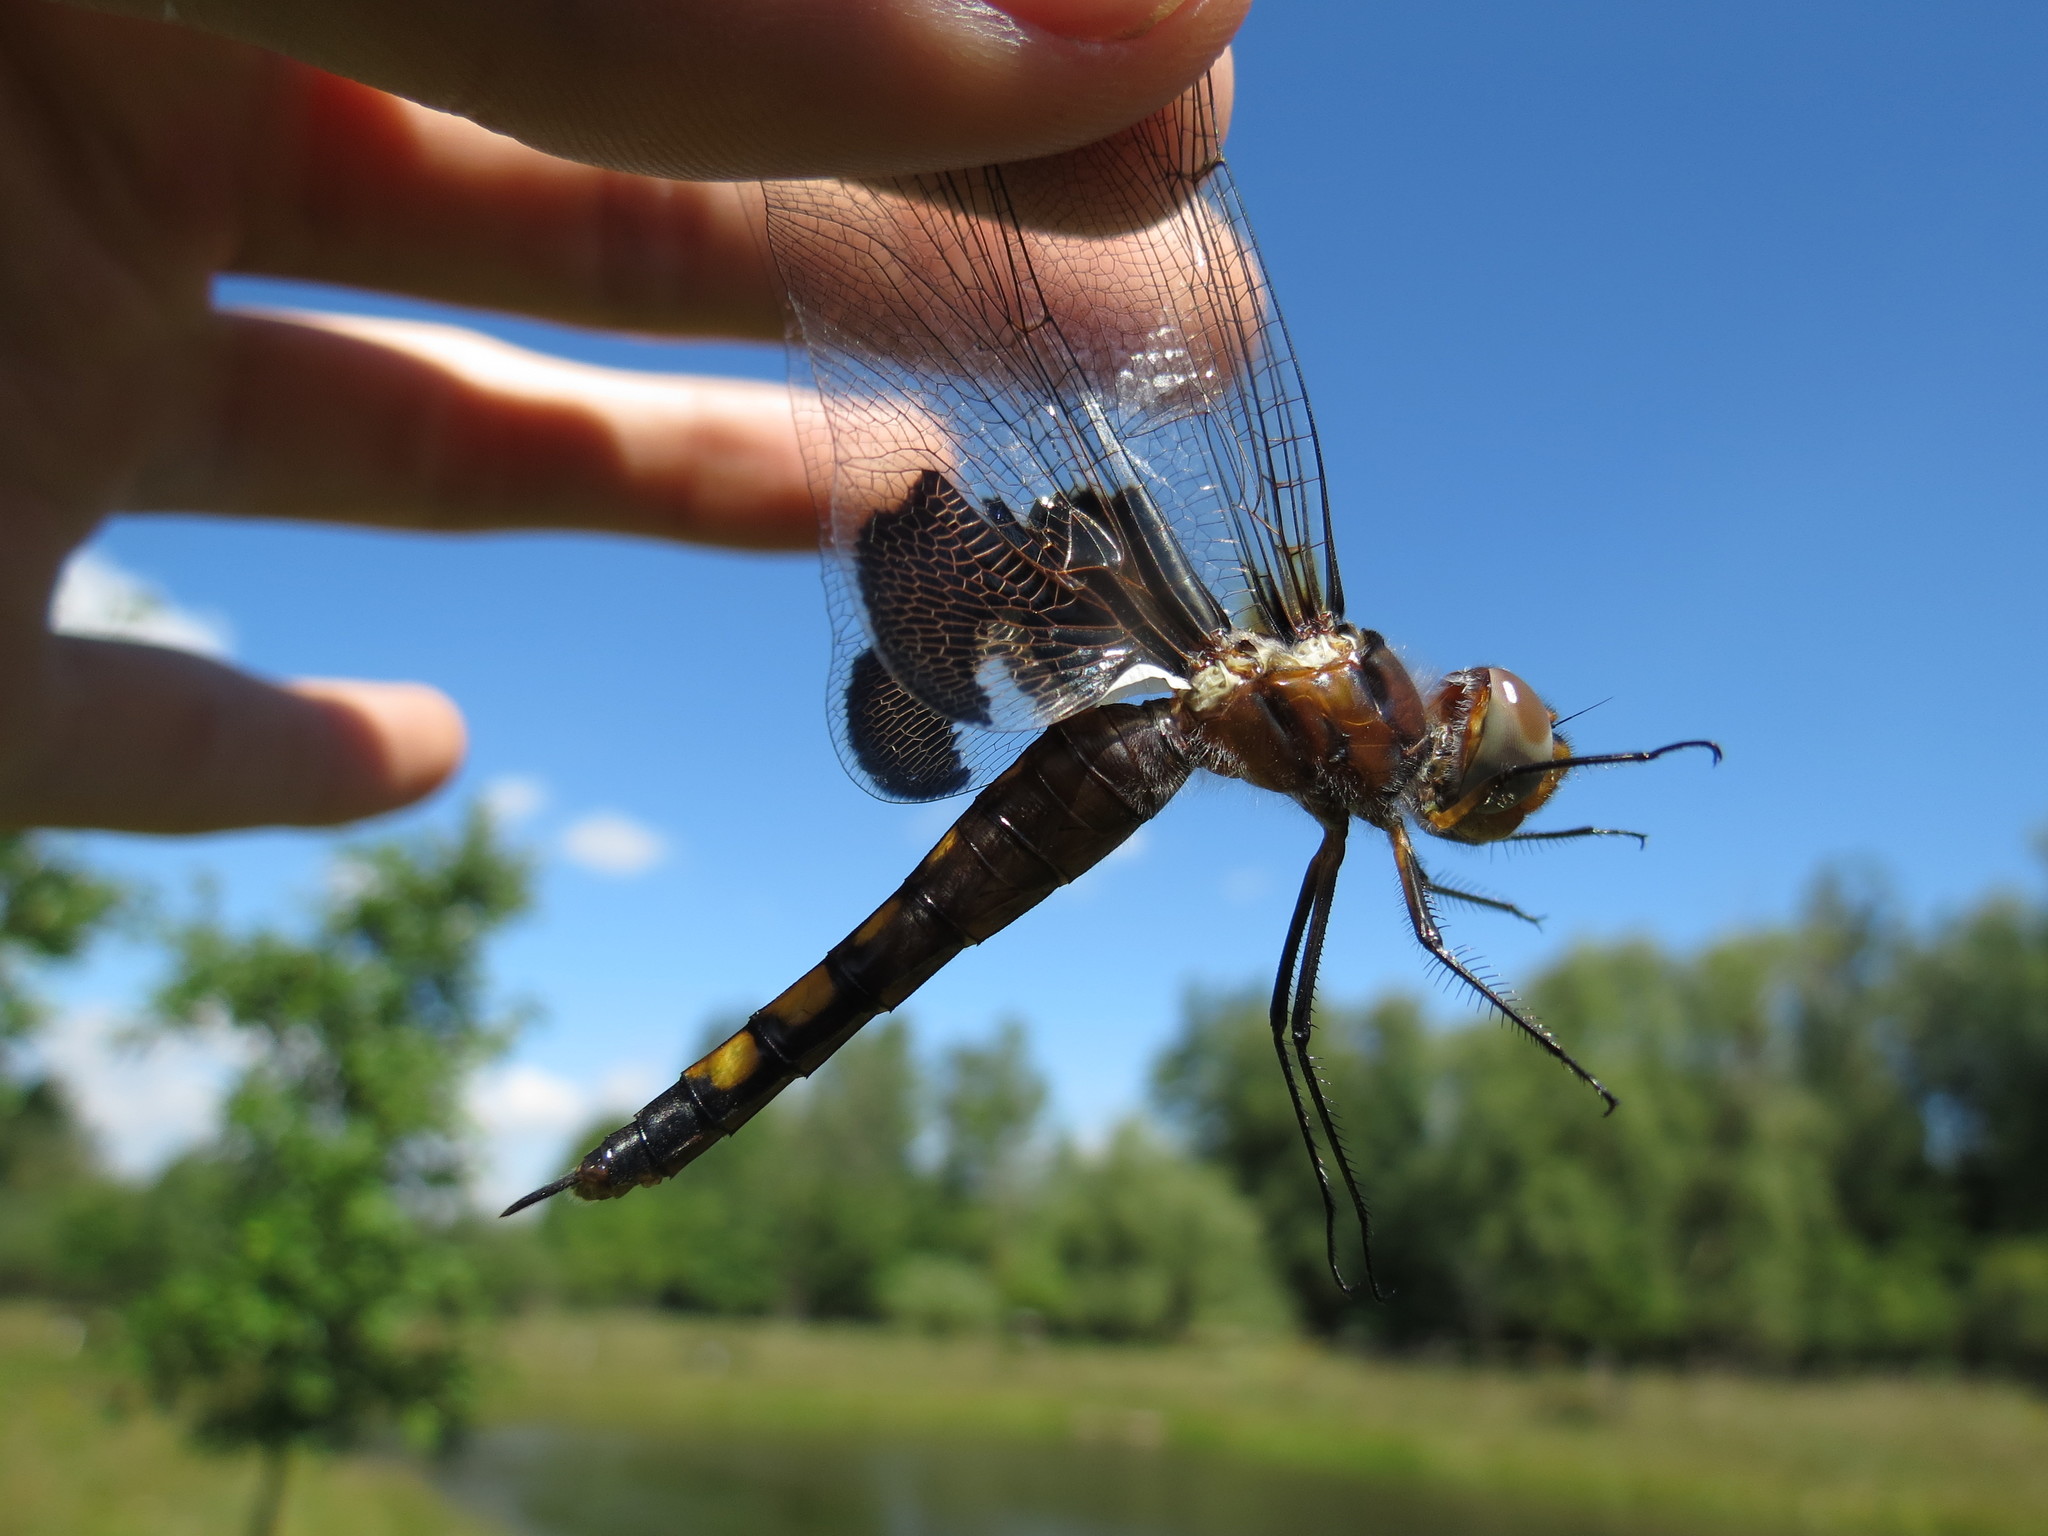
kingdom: Animalia
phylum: Arthropoda
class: Insecta
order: Odonata
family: Libellulidae
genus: Tramea
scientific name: Tramea lacerata
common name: Black saddlebags
